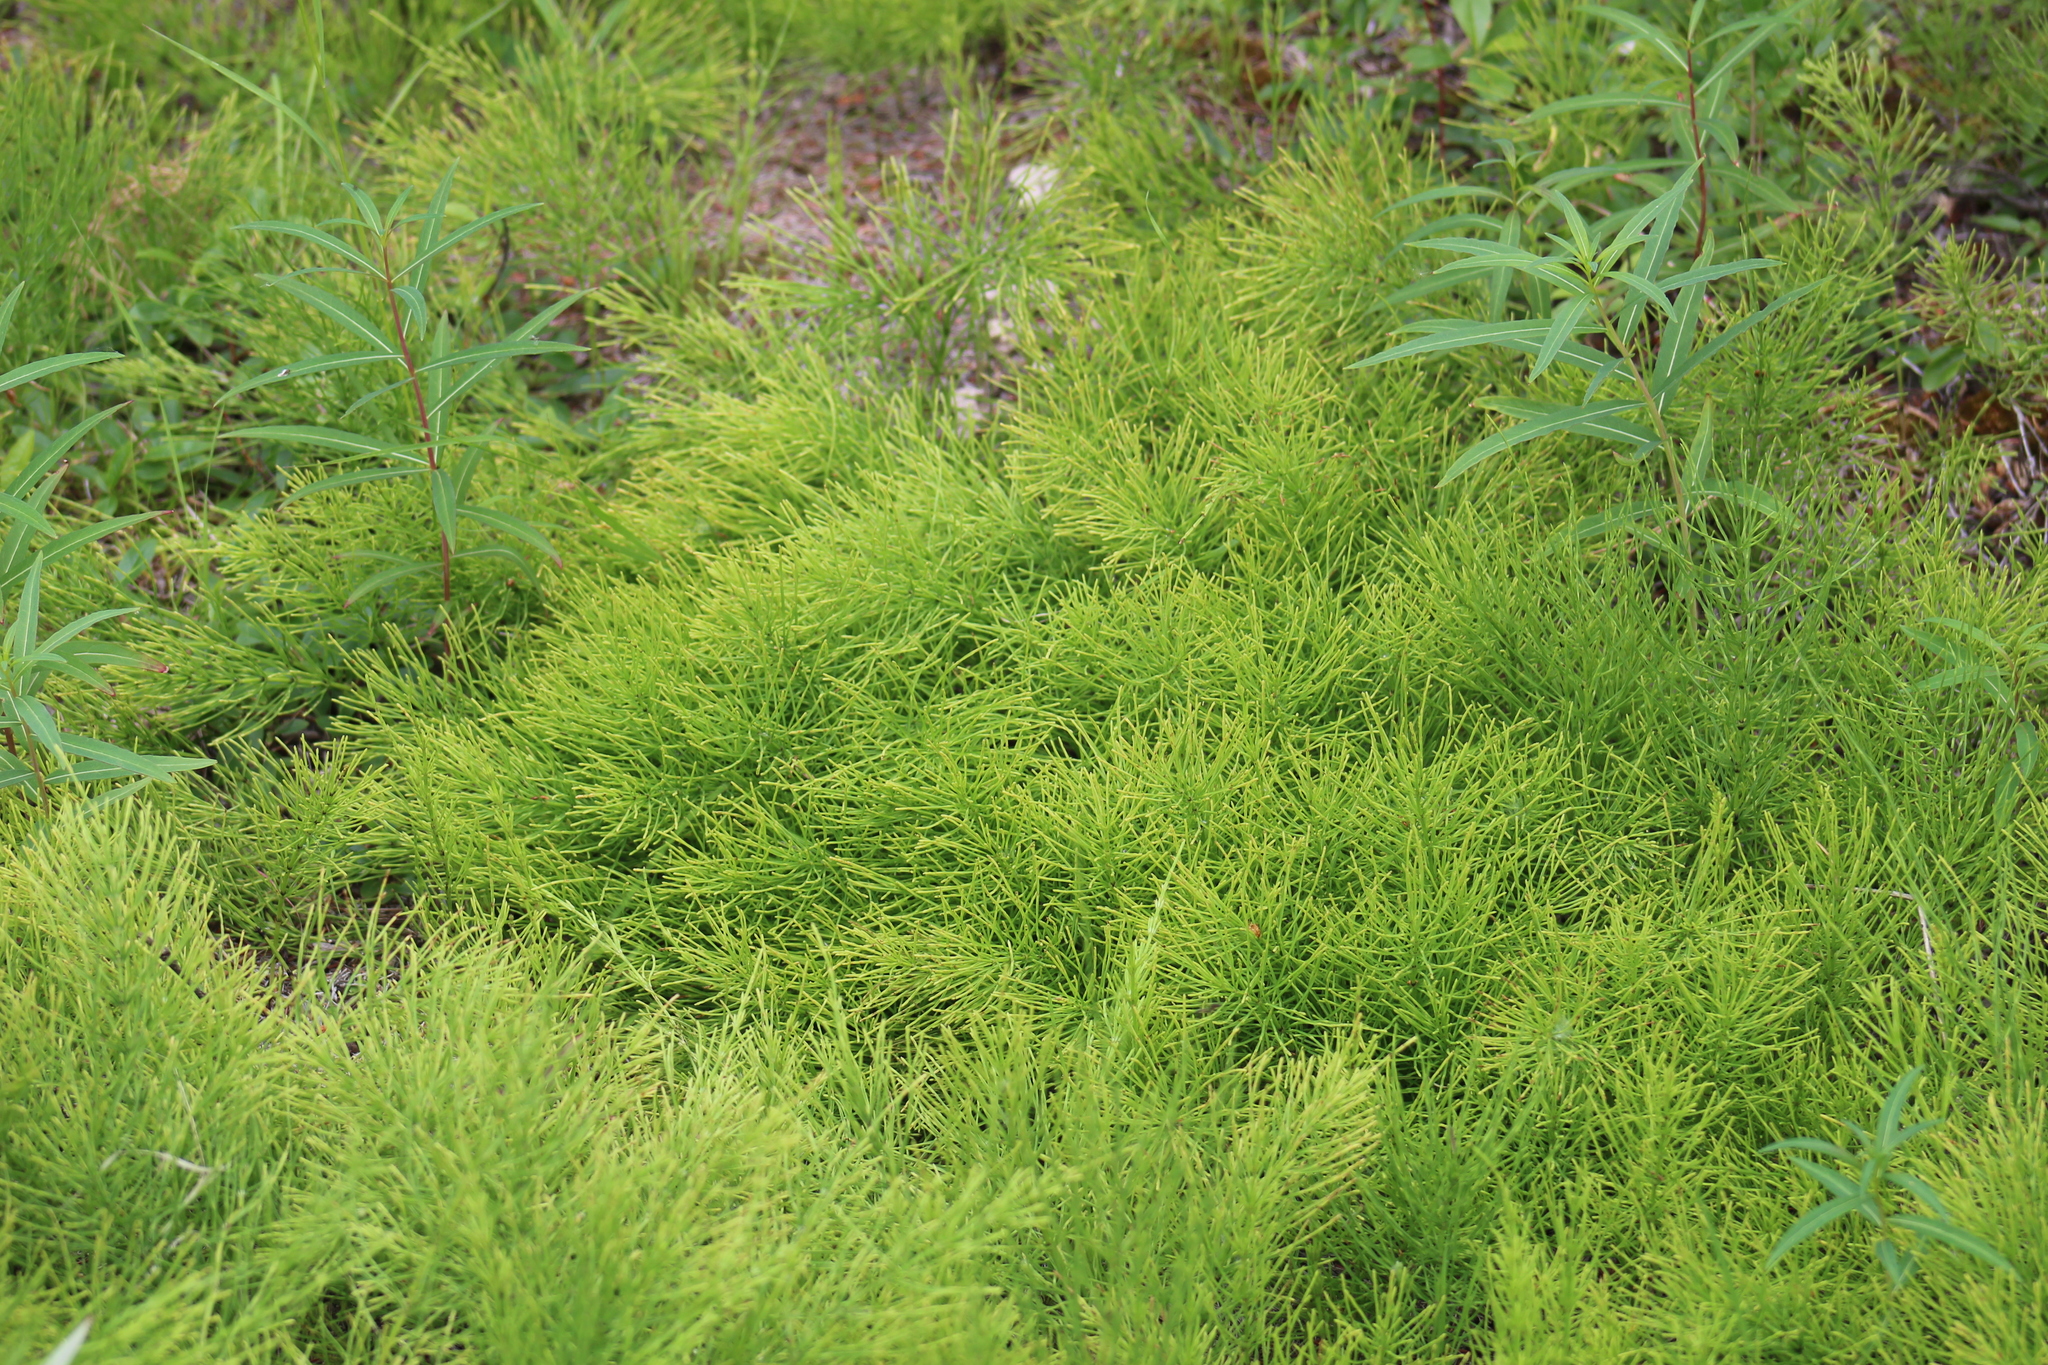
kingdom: Plantae
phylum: Tracheophyta
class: Polypodiopsida
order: Equisetales
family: Equisetaceae
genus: Equisetum
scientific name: Equisetum arvense
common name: Field horsetail
